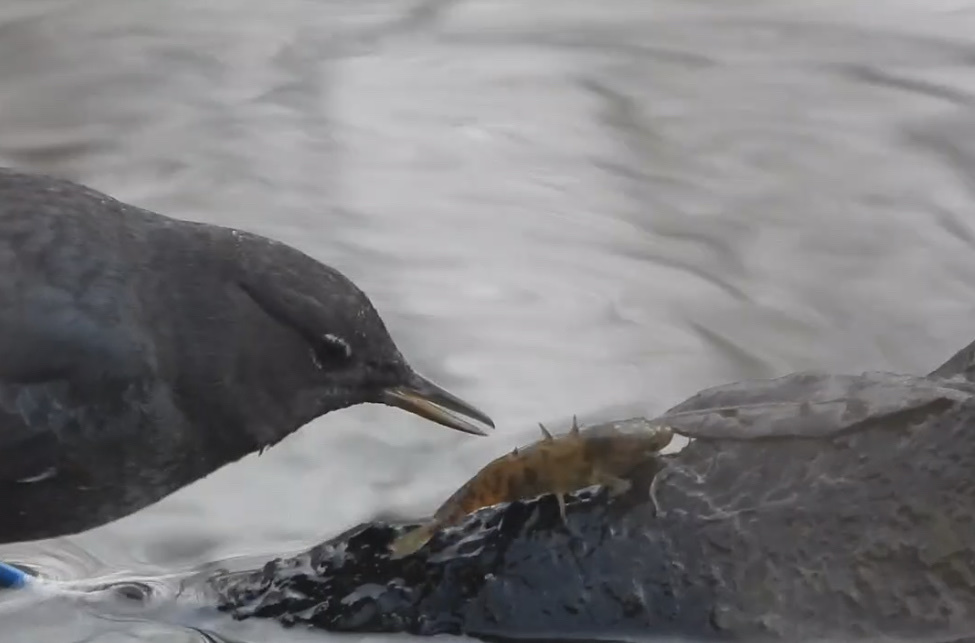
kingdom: Animalia
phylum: Chordata
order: Gasterosteiformes
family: Gasterosteidae
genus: Gasterosteus
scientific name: Gasterosteus aculeatus
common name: Three-spined stickleback
